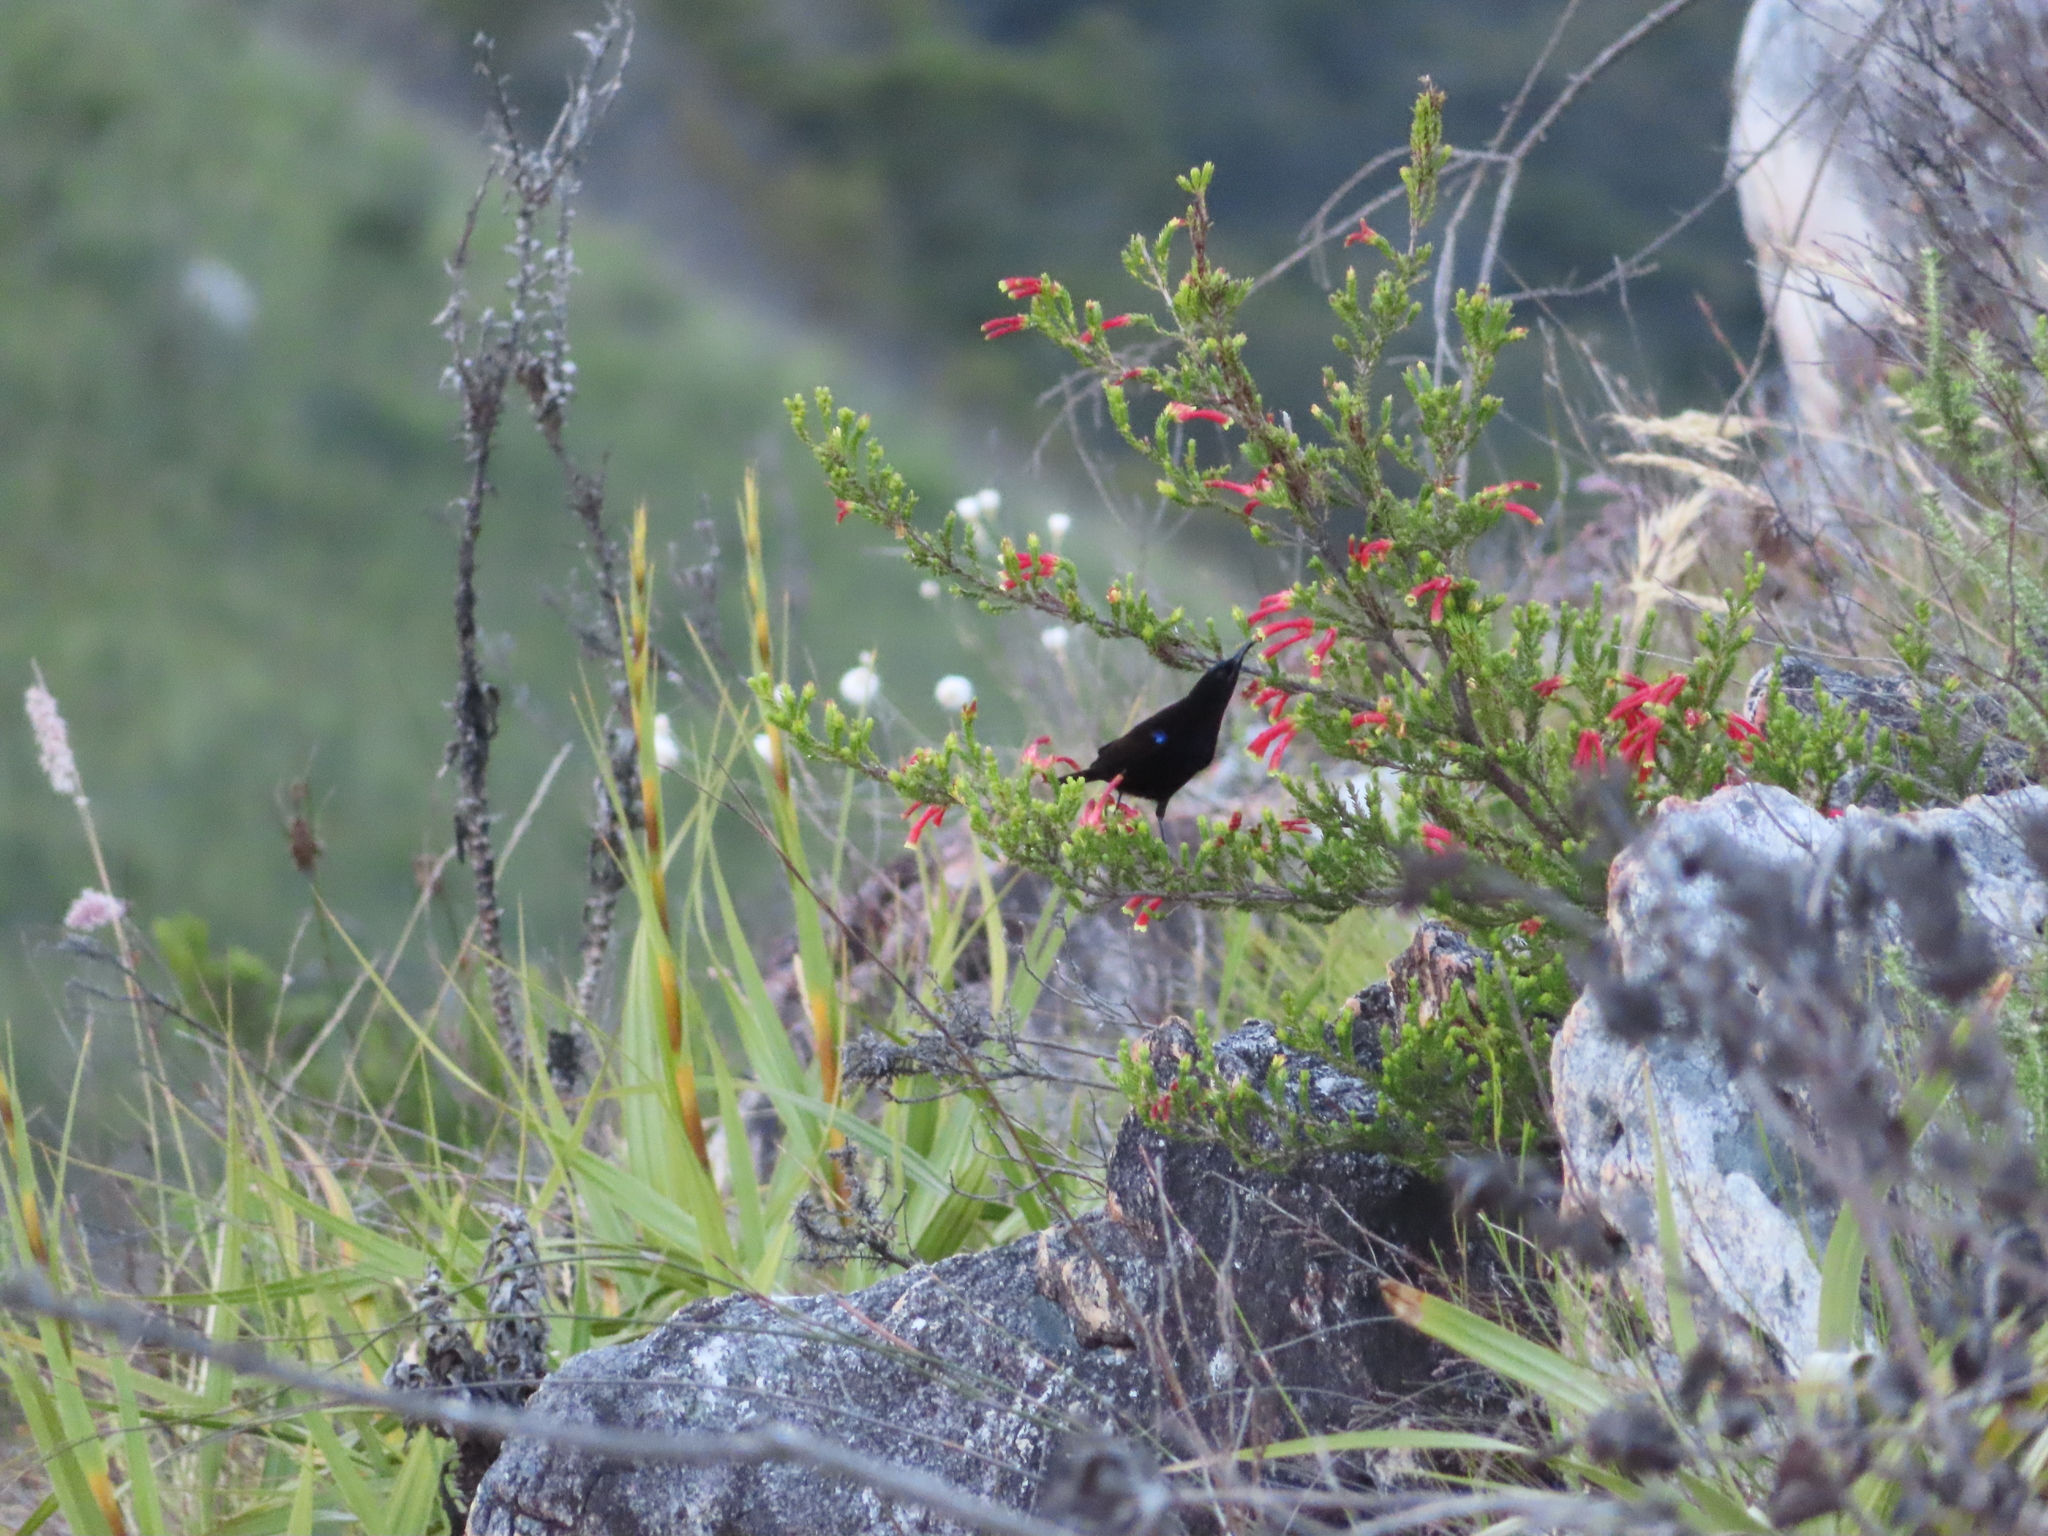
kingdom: Animalia
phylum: Chordata
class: Aves
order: Passeriformes
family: Nectariniidae
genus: Chalcomitra
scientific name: Chalcomitra amethystina
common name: Amethyst sunbird
